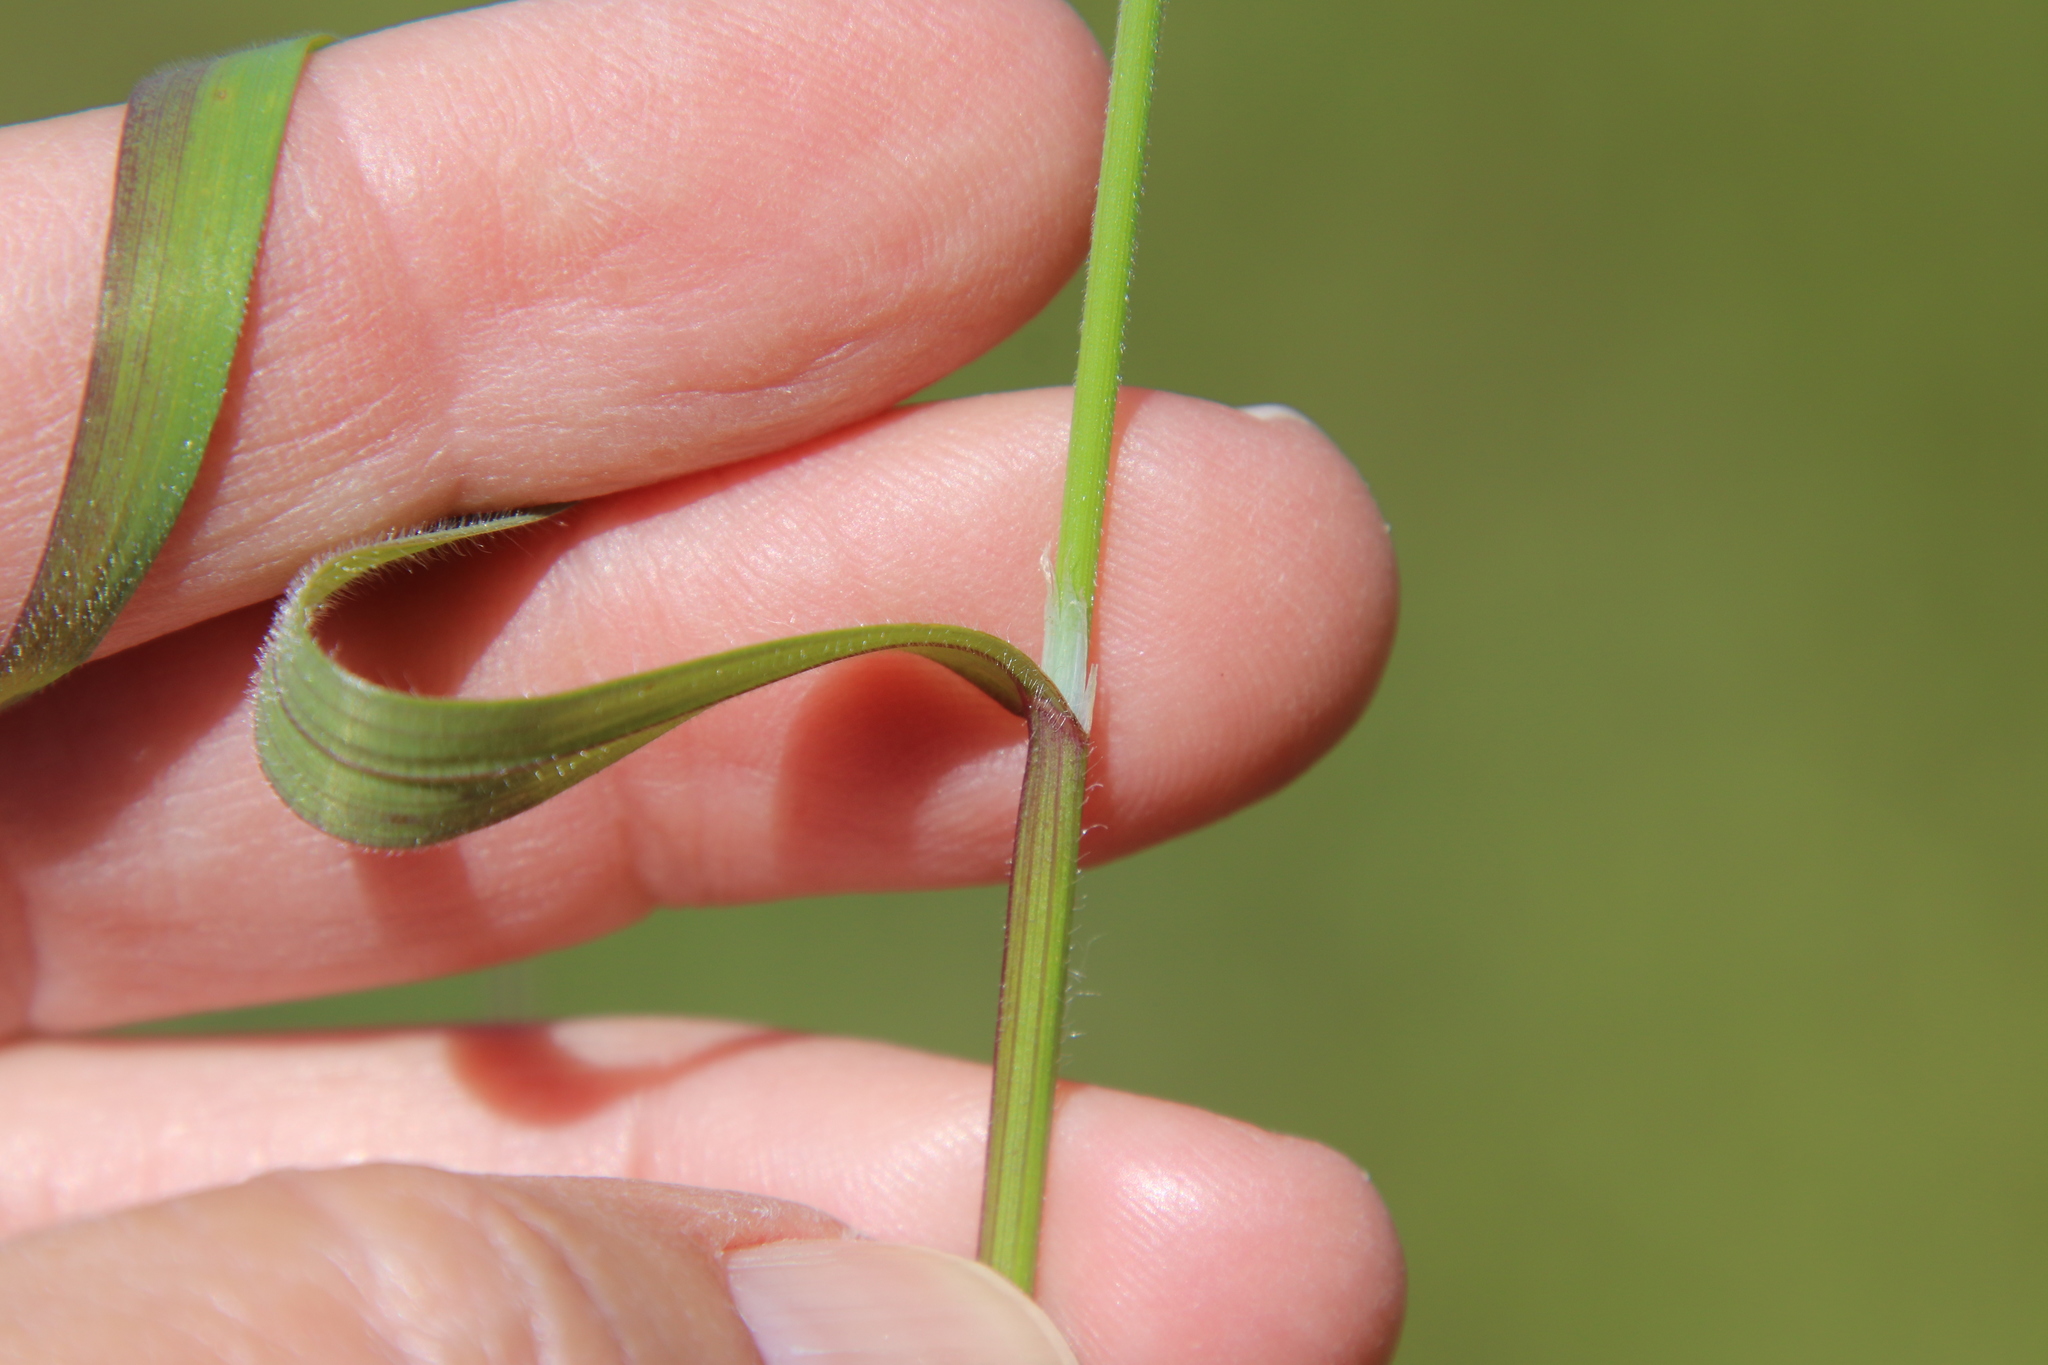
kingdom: Plantae
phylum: Tracheophyta
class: Liliopsida
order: Poales
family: Poaceae
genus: Bromus
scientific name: Bromus diandrus
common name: Ripgut brome
